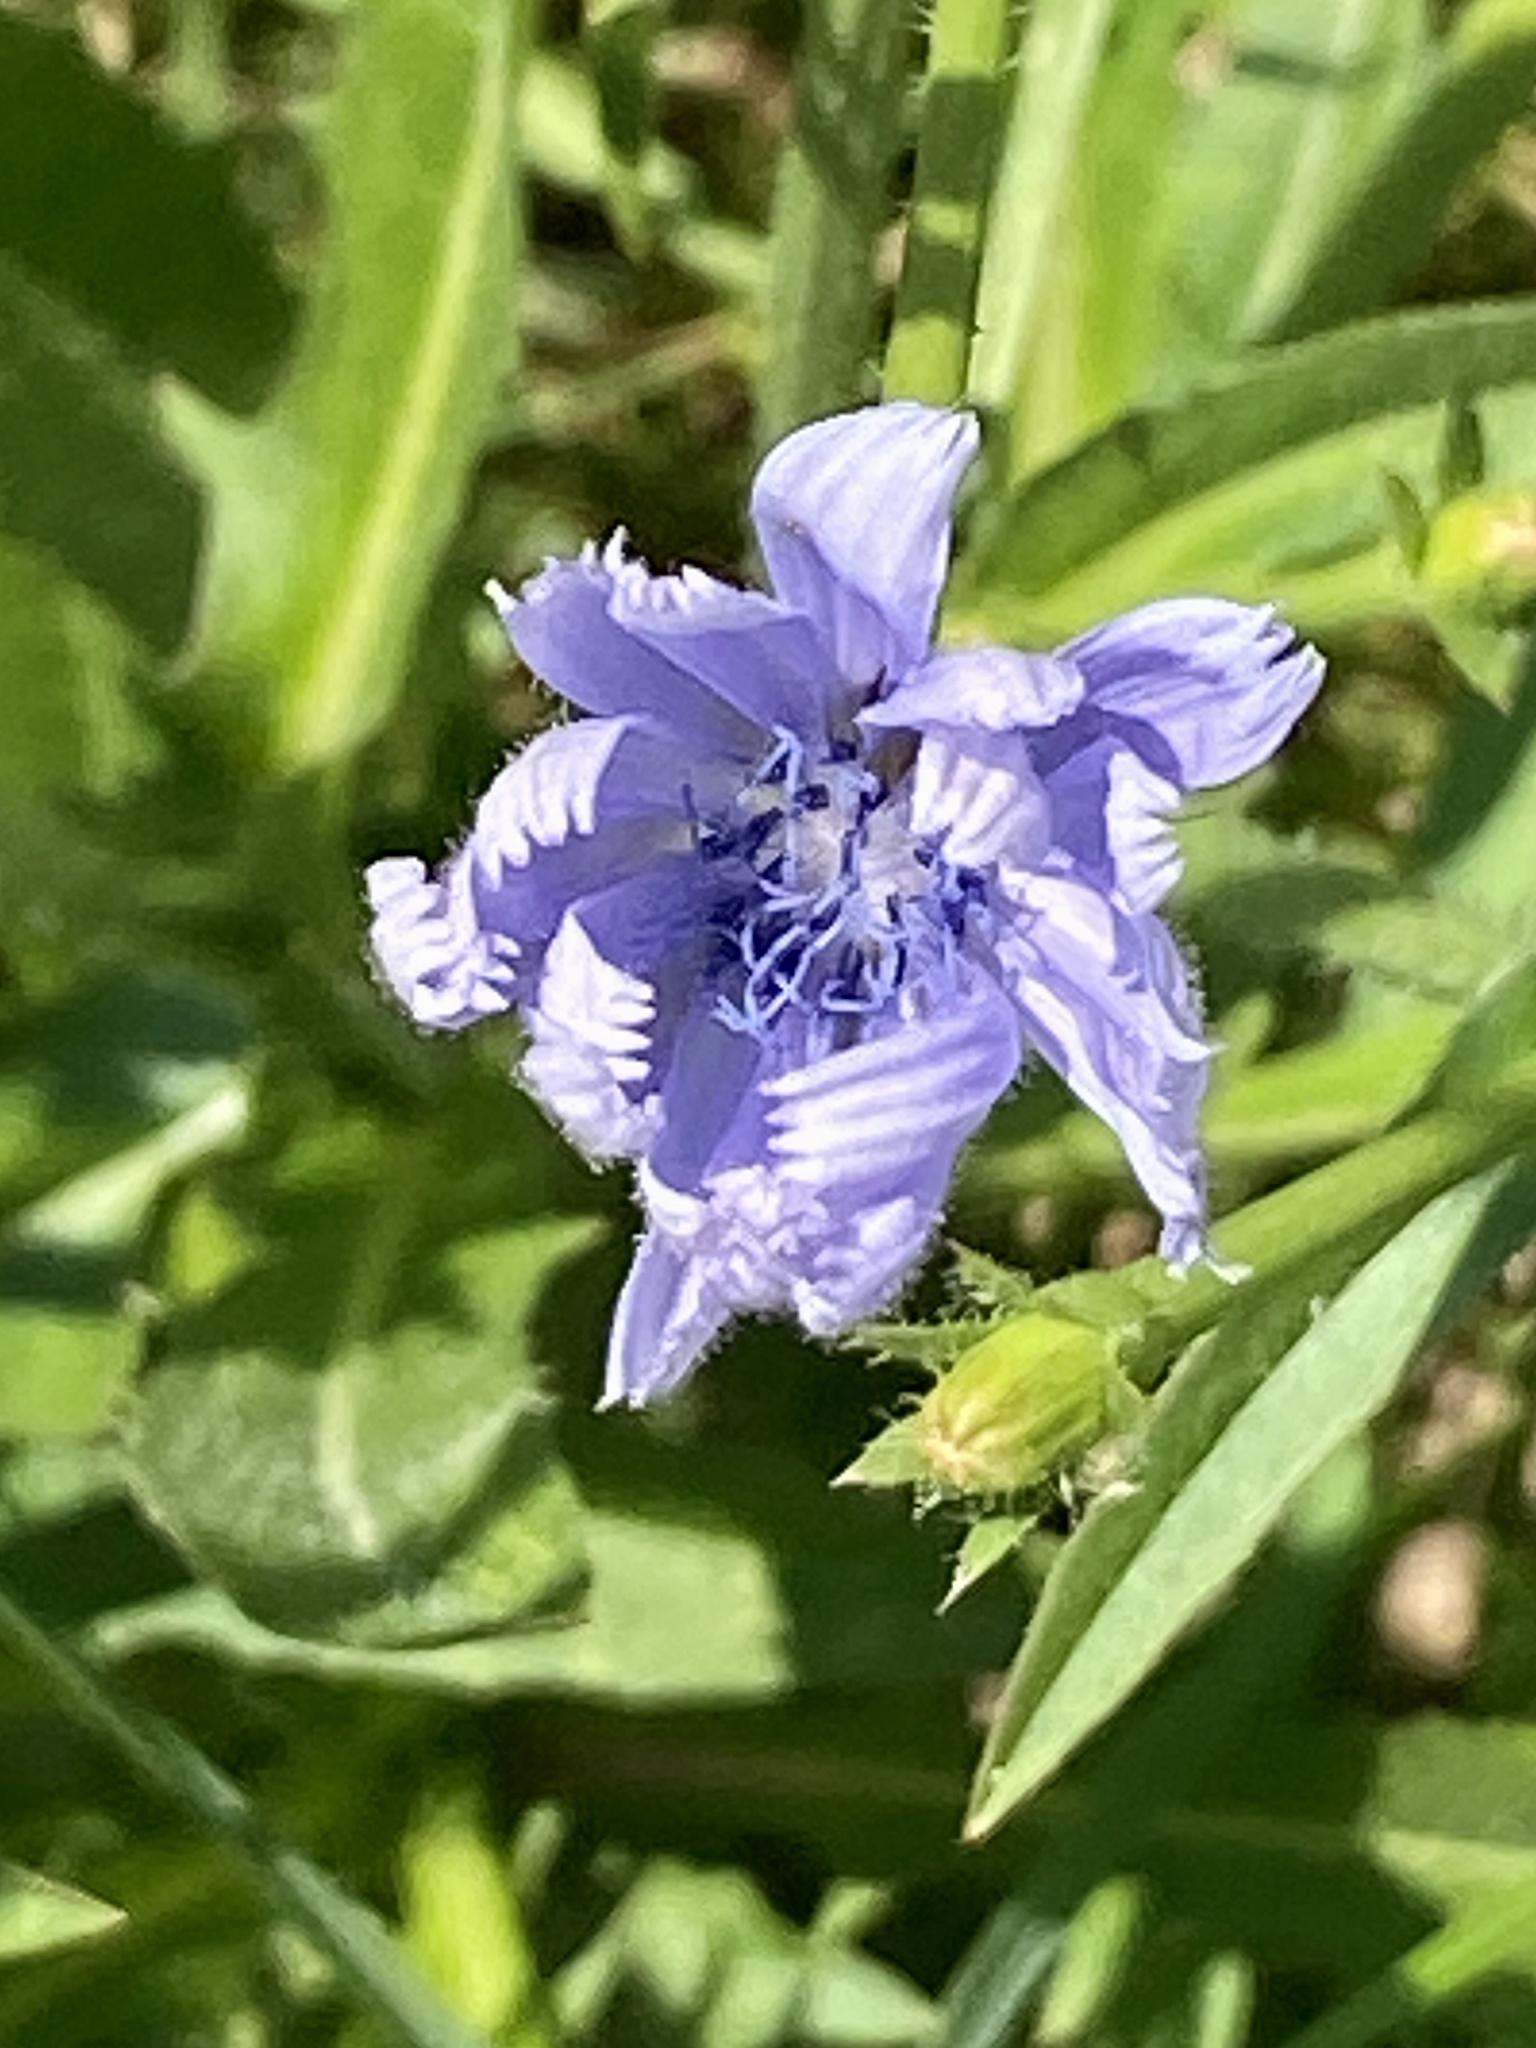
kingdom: Plantae
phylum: Tracheophyta
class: Magnoliopsida
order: Asterales
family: Asteraceae
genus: Cichorium
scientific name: Cichorium intybus
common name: Chicory
